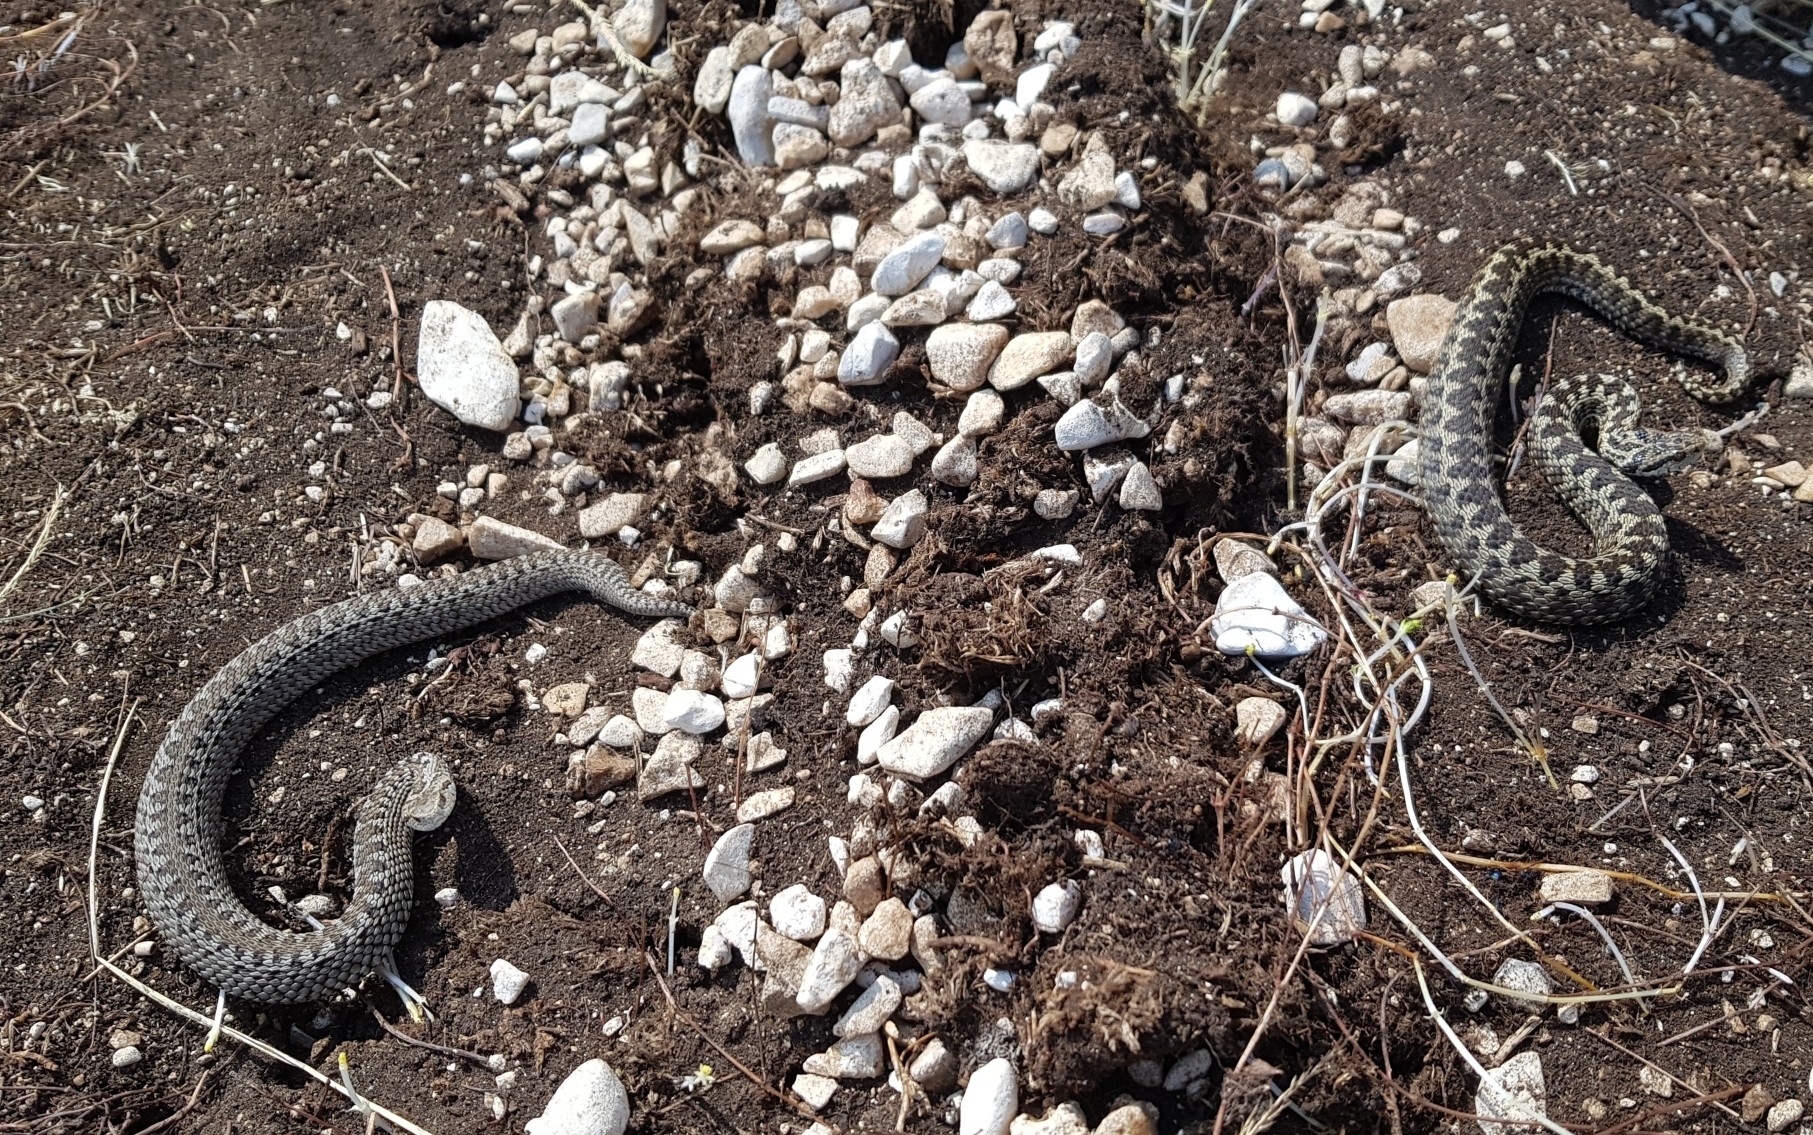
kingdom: Animalia
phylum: Chordata
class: Squamata
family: Viperidae
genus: Vipera
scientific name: Vipera ursinii
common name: Meadow viper
